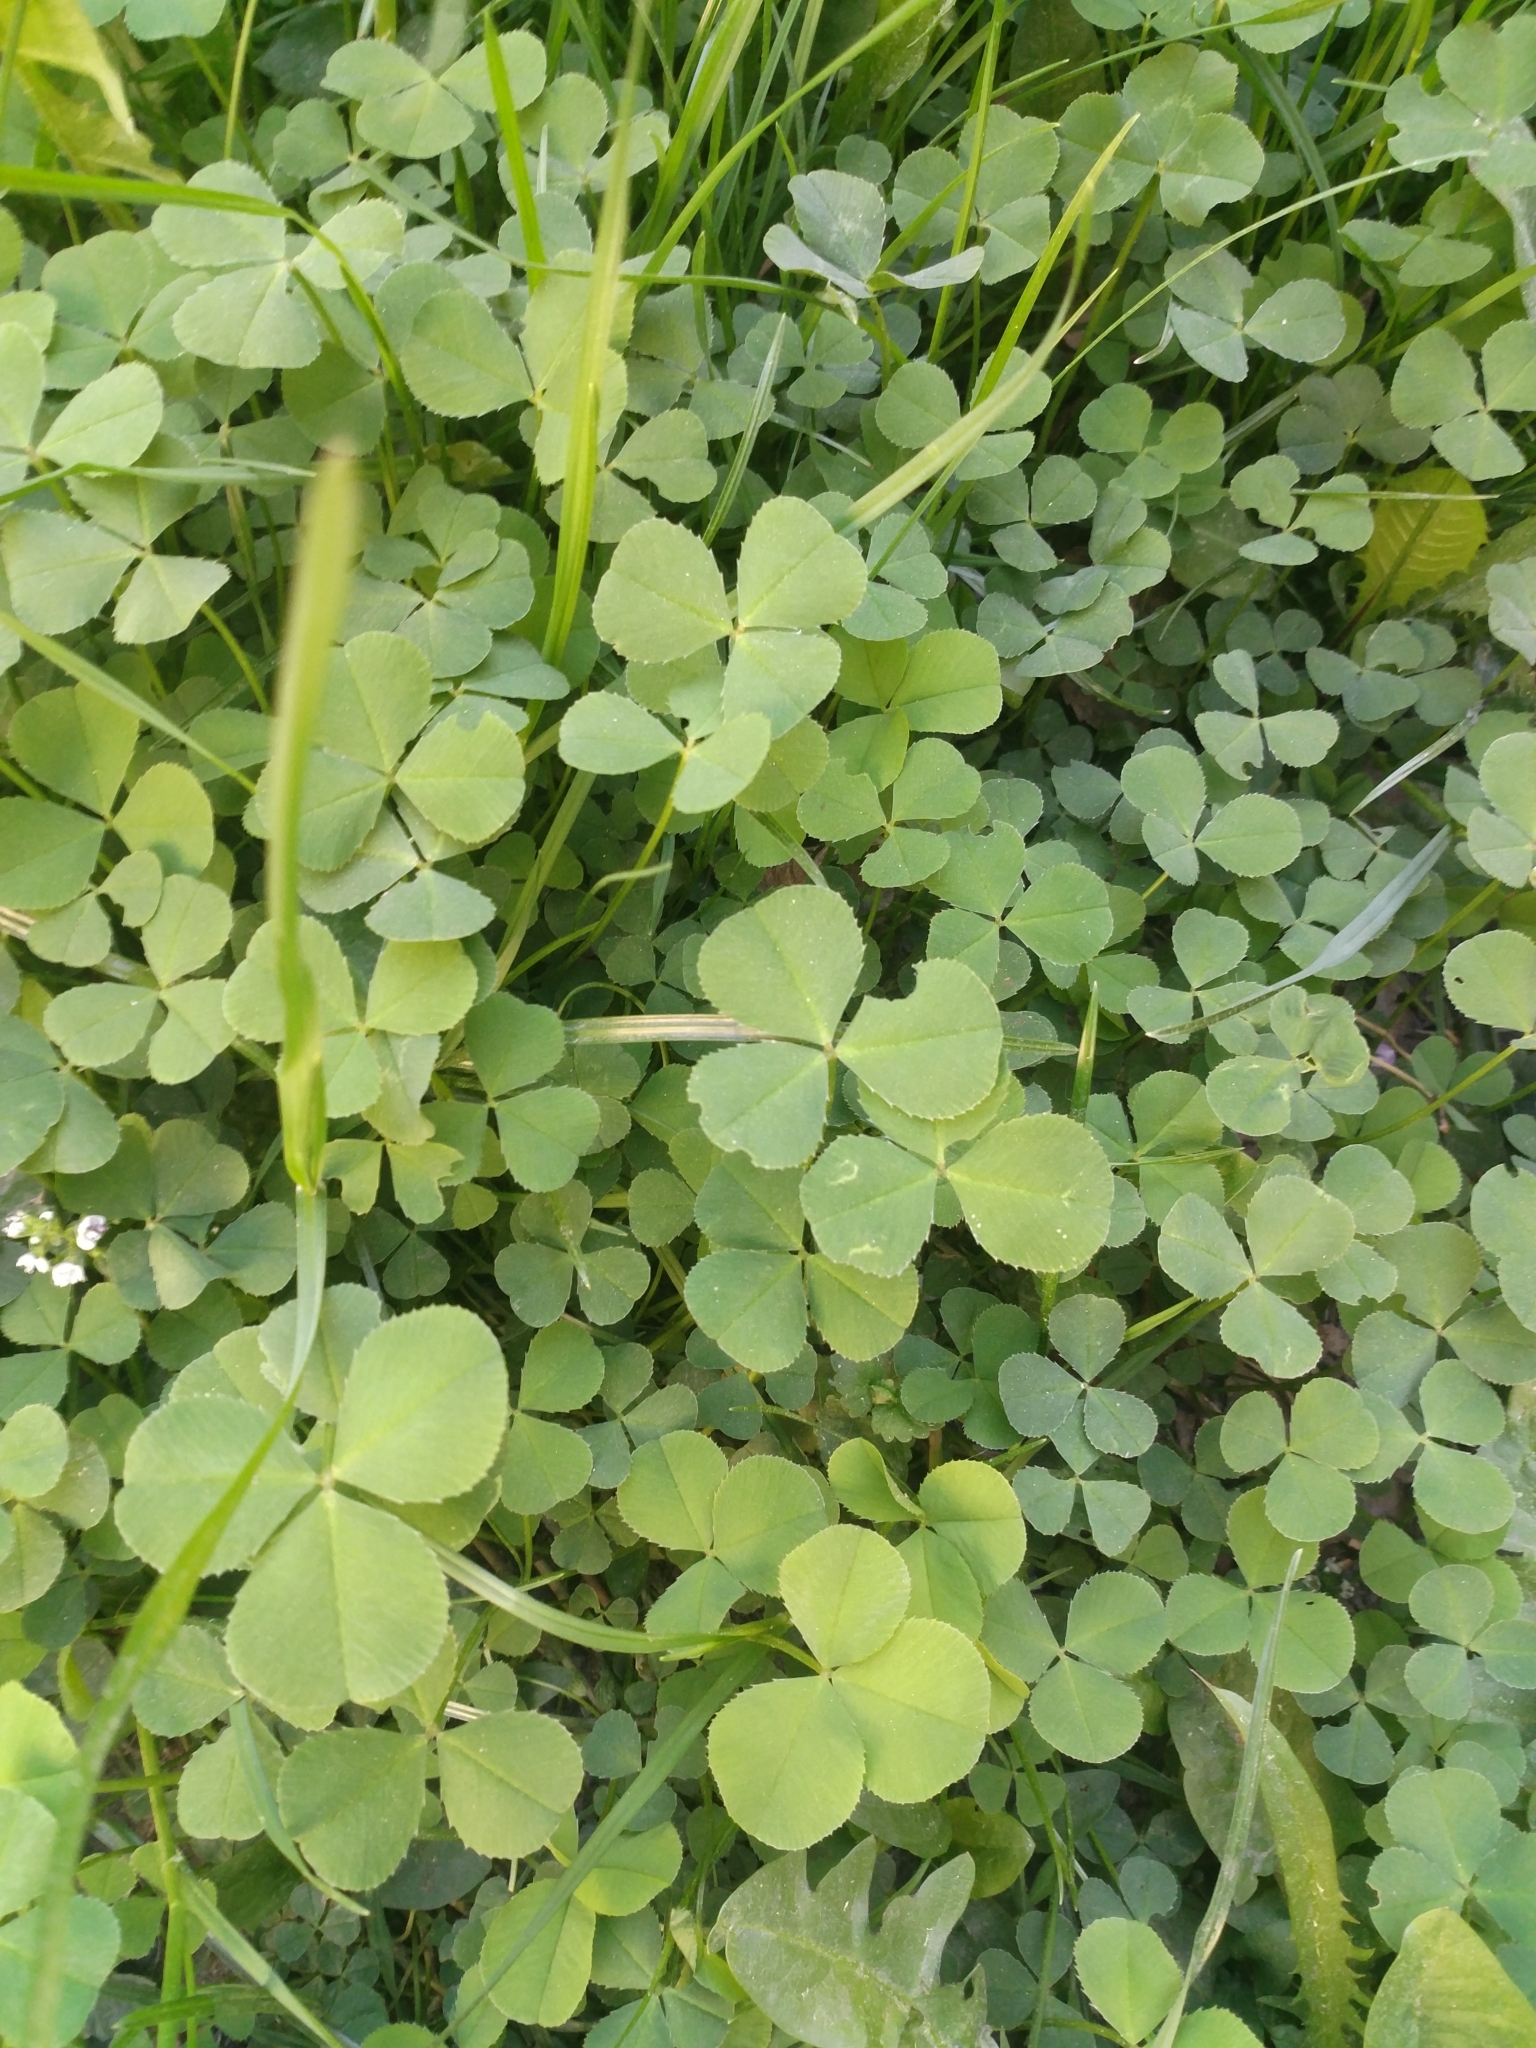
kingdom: Plantae
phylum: Tracheophyta
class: Magnoliopsida
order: Fabales
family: Fabaceae
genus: Trifolium
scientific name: Trifolium repens
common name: White clover
